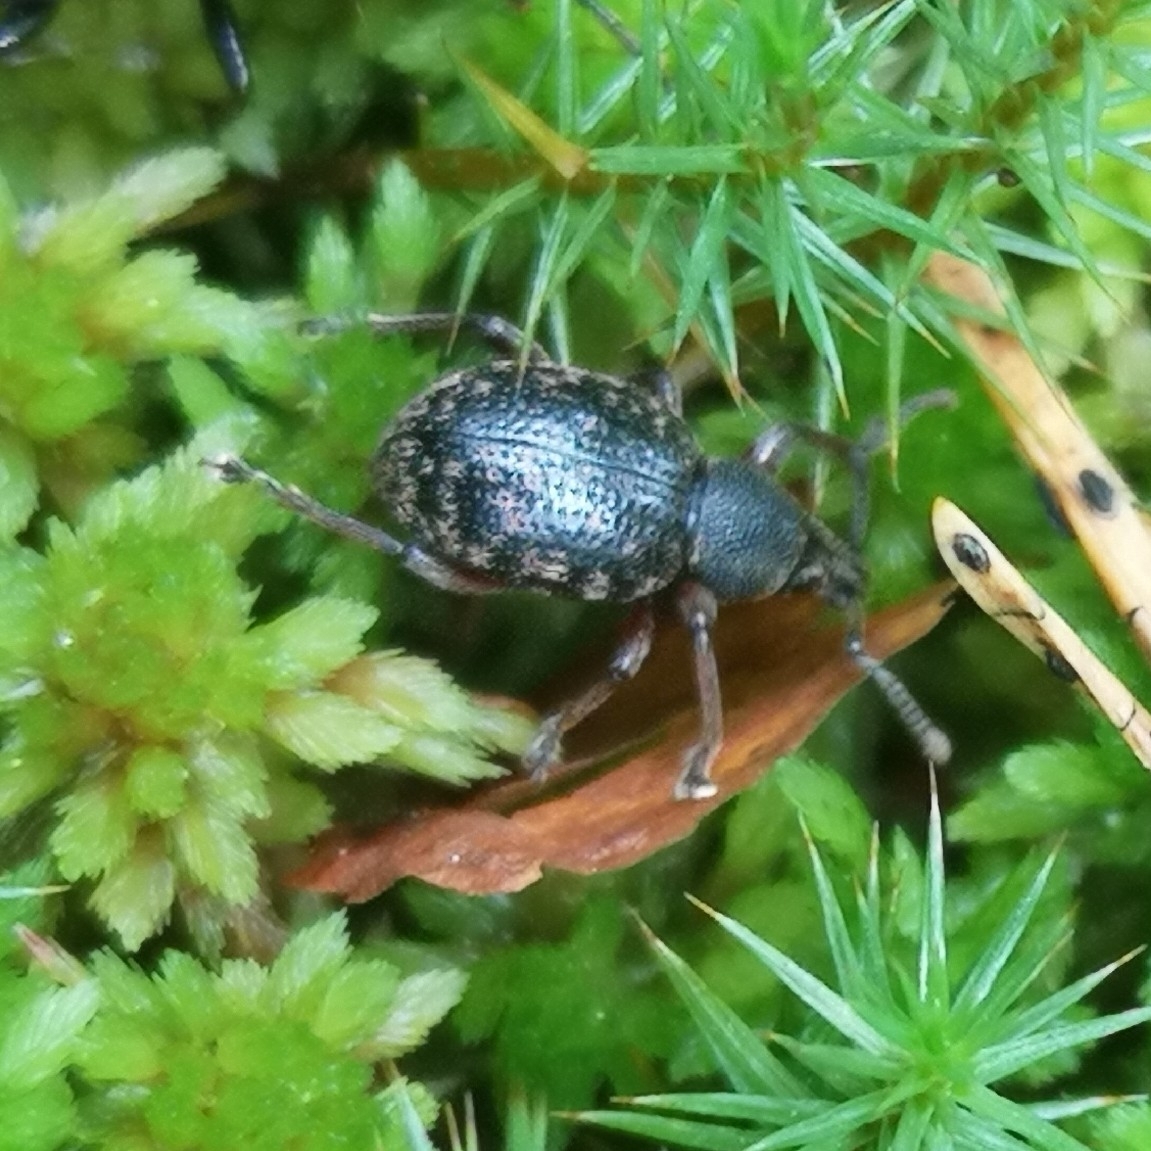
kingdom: Animalia
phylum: Arthropoda
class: Insecta
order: Coleoptera
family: Curculionidae
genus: Otiorhynchus
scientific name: Otiorhynchus nodosus
